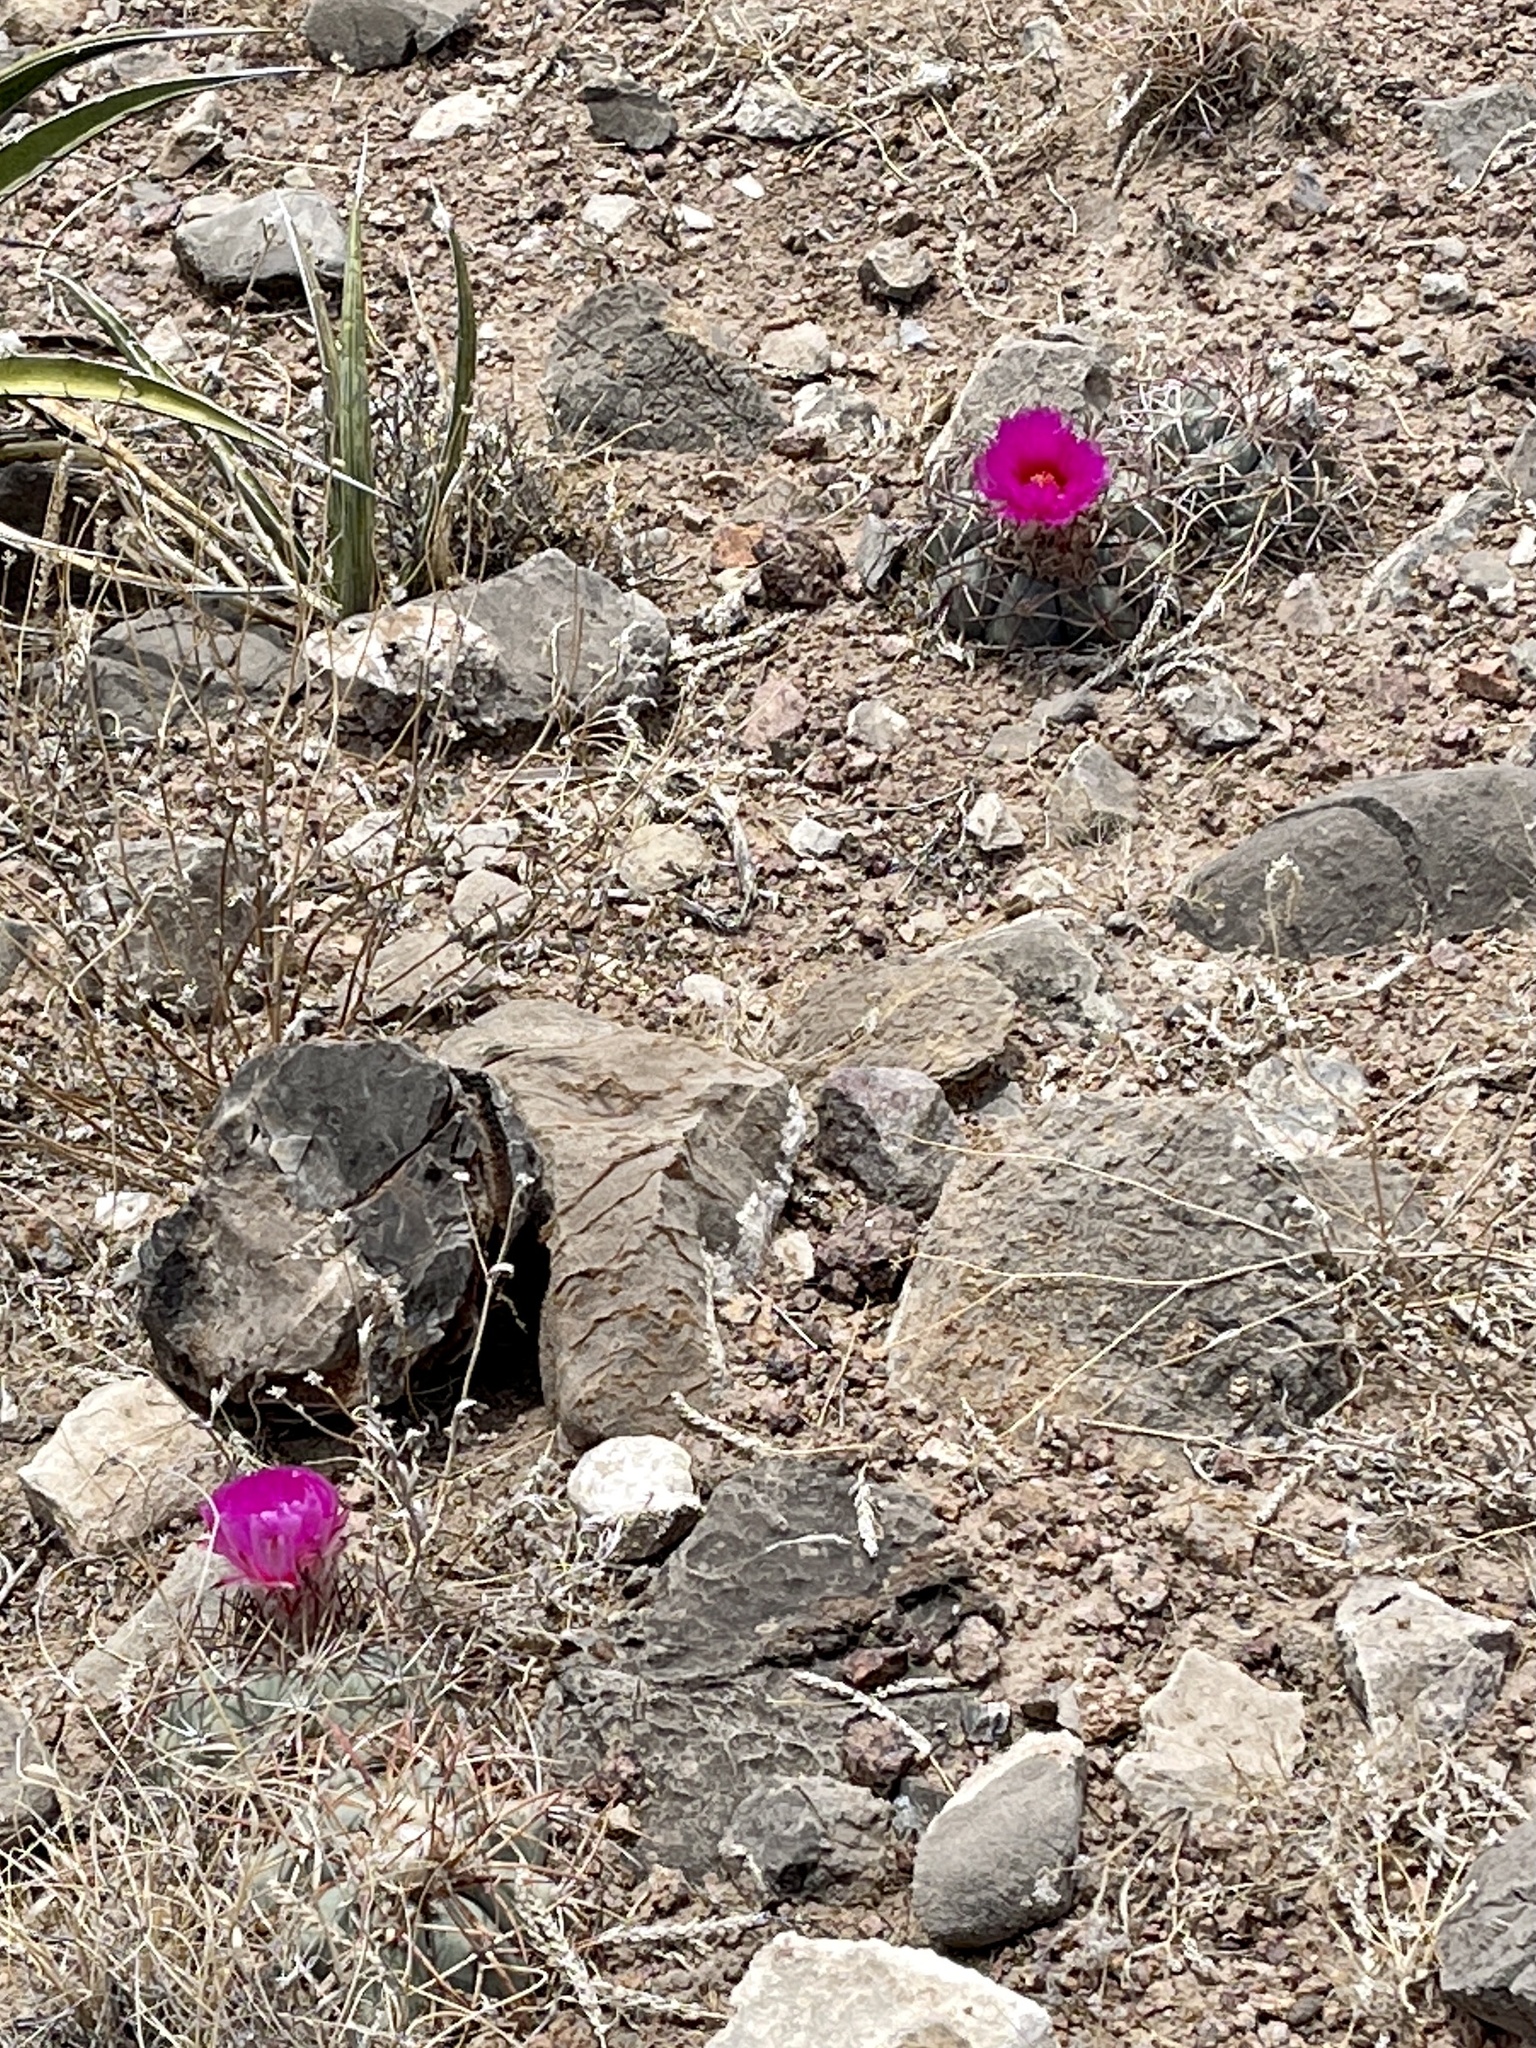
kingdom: Plantae
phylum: Tracheophyta
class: Magnoliopsida
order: Caryophyllales
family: Cactaceae
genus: Echinocactus
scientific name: Echinocactus horizonthalonius
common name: Devilshead
